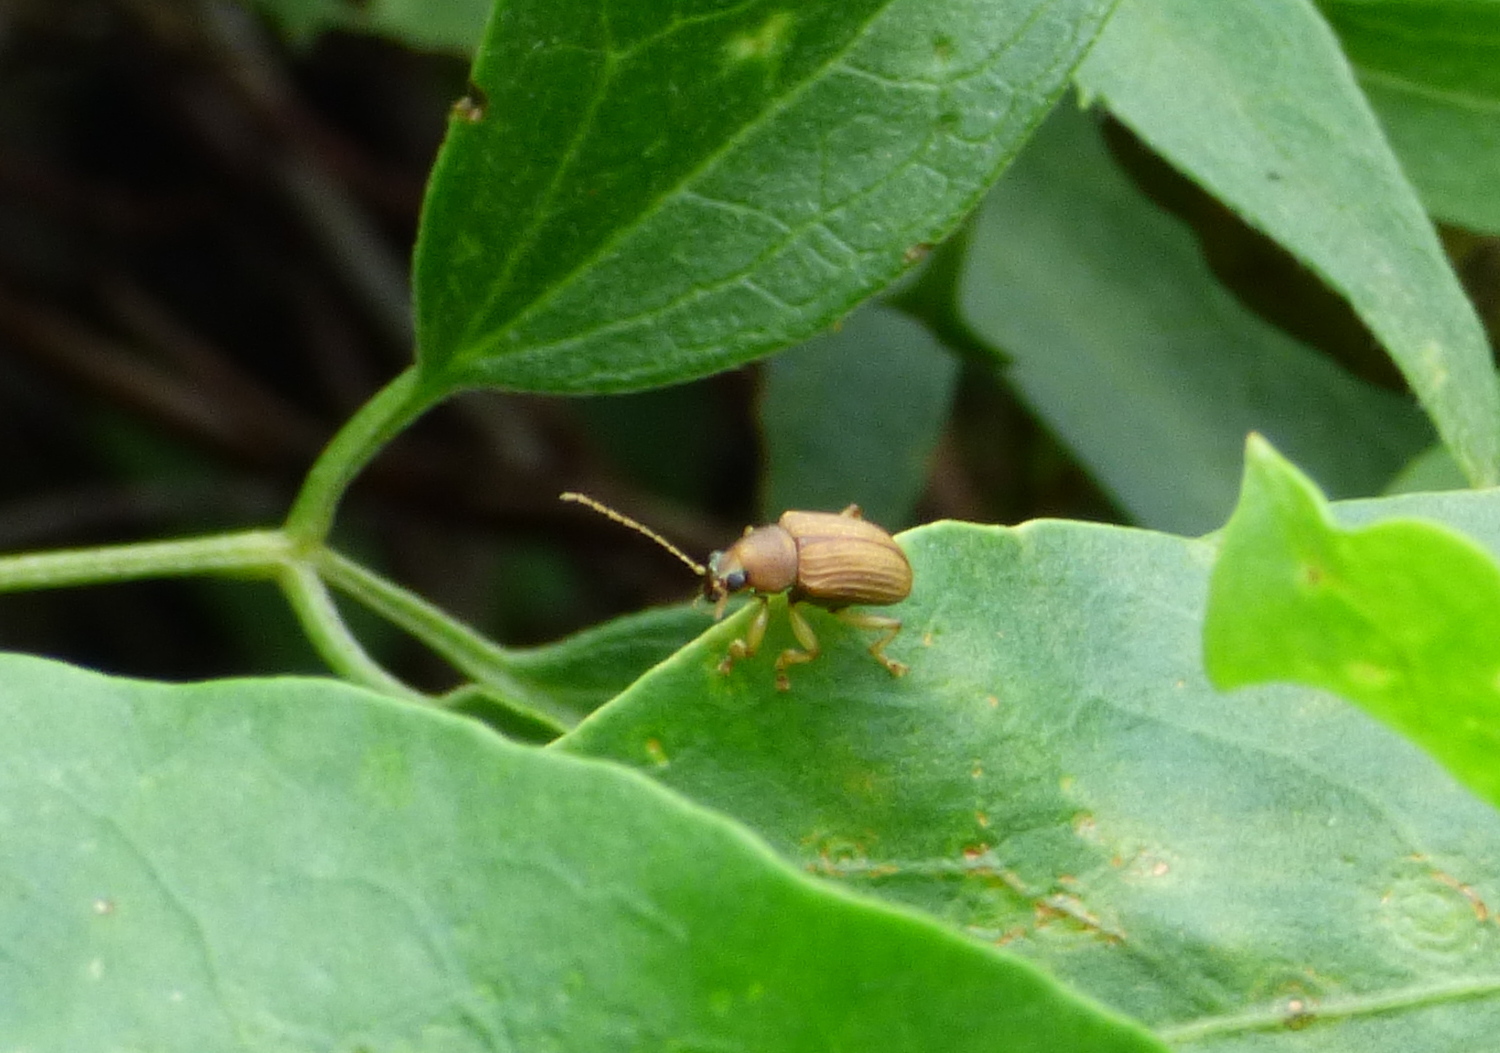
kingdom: Animalia
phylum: Arthropoda
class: Insecta
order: Coleoptera
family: Chrysomelidae
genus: Colaspis
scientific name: Colaspis
